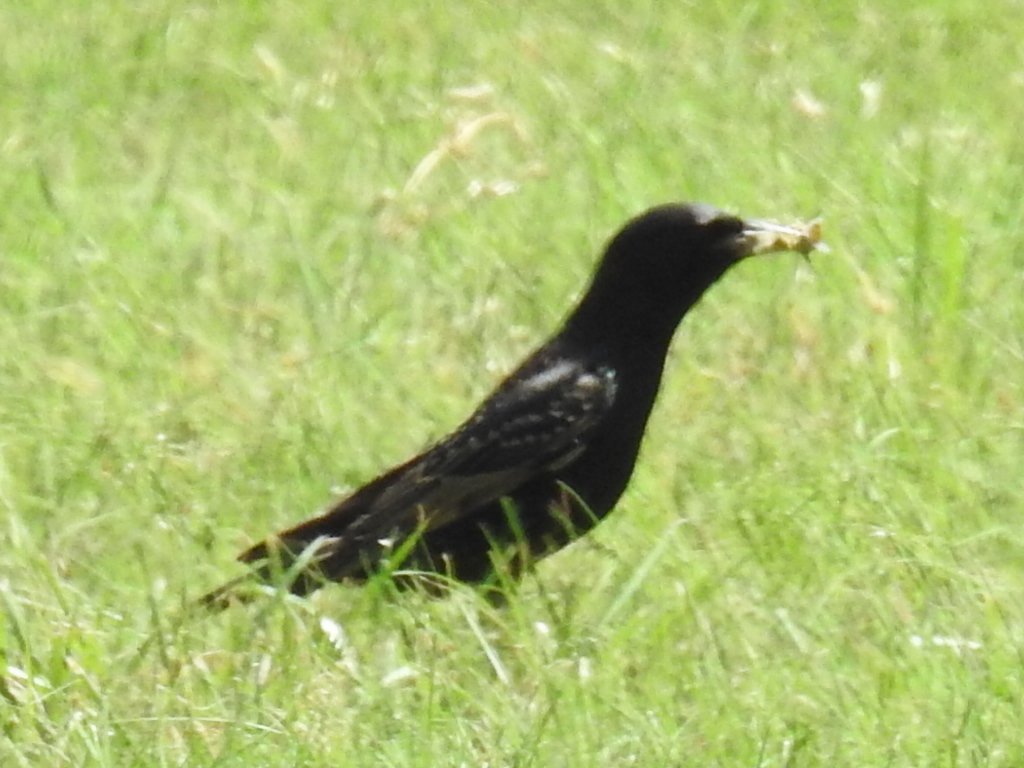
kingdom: Animalia
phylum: Chordata
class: Aves
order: Passeriformes
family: Sturnidae
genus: Sturnus
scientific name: Sturnus vulgaris
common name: Common starling
